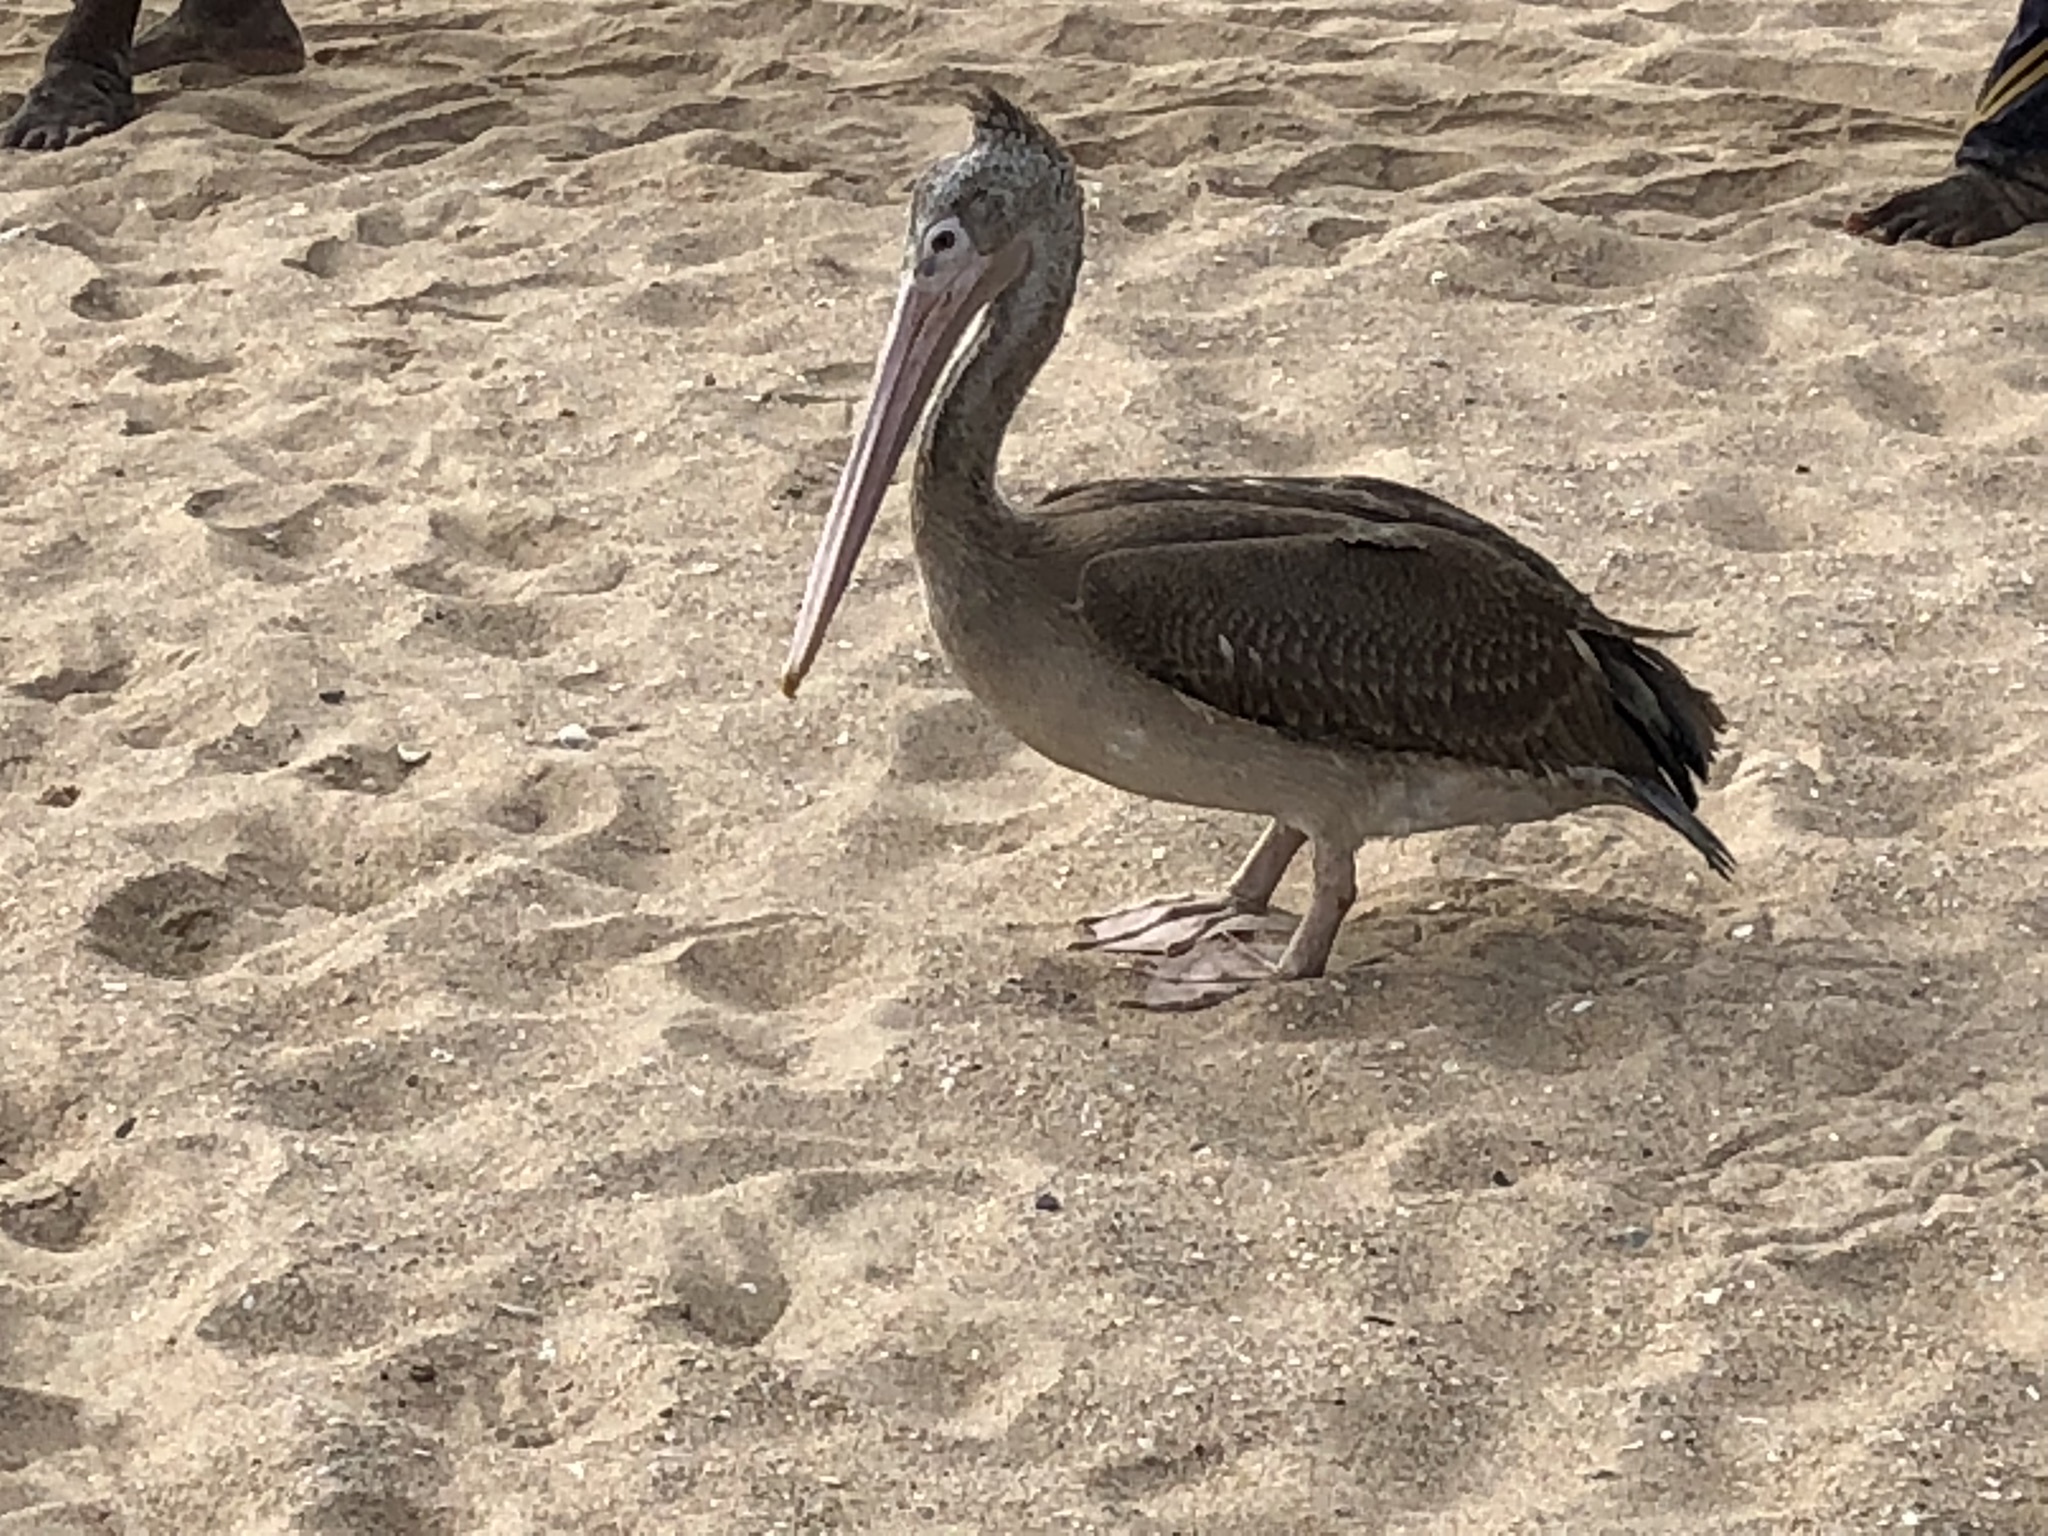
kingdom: Animalia
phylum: Chordata
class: Aves
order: Pelecaniformes
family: Pelecanidae
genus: Pelecanus
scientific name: Pelecanus philippensis
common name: Spot-billed pelican
